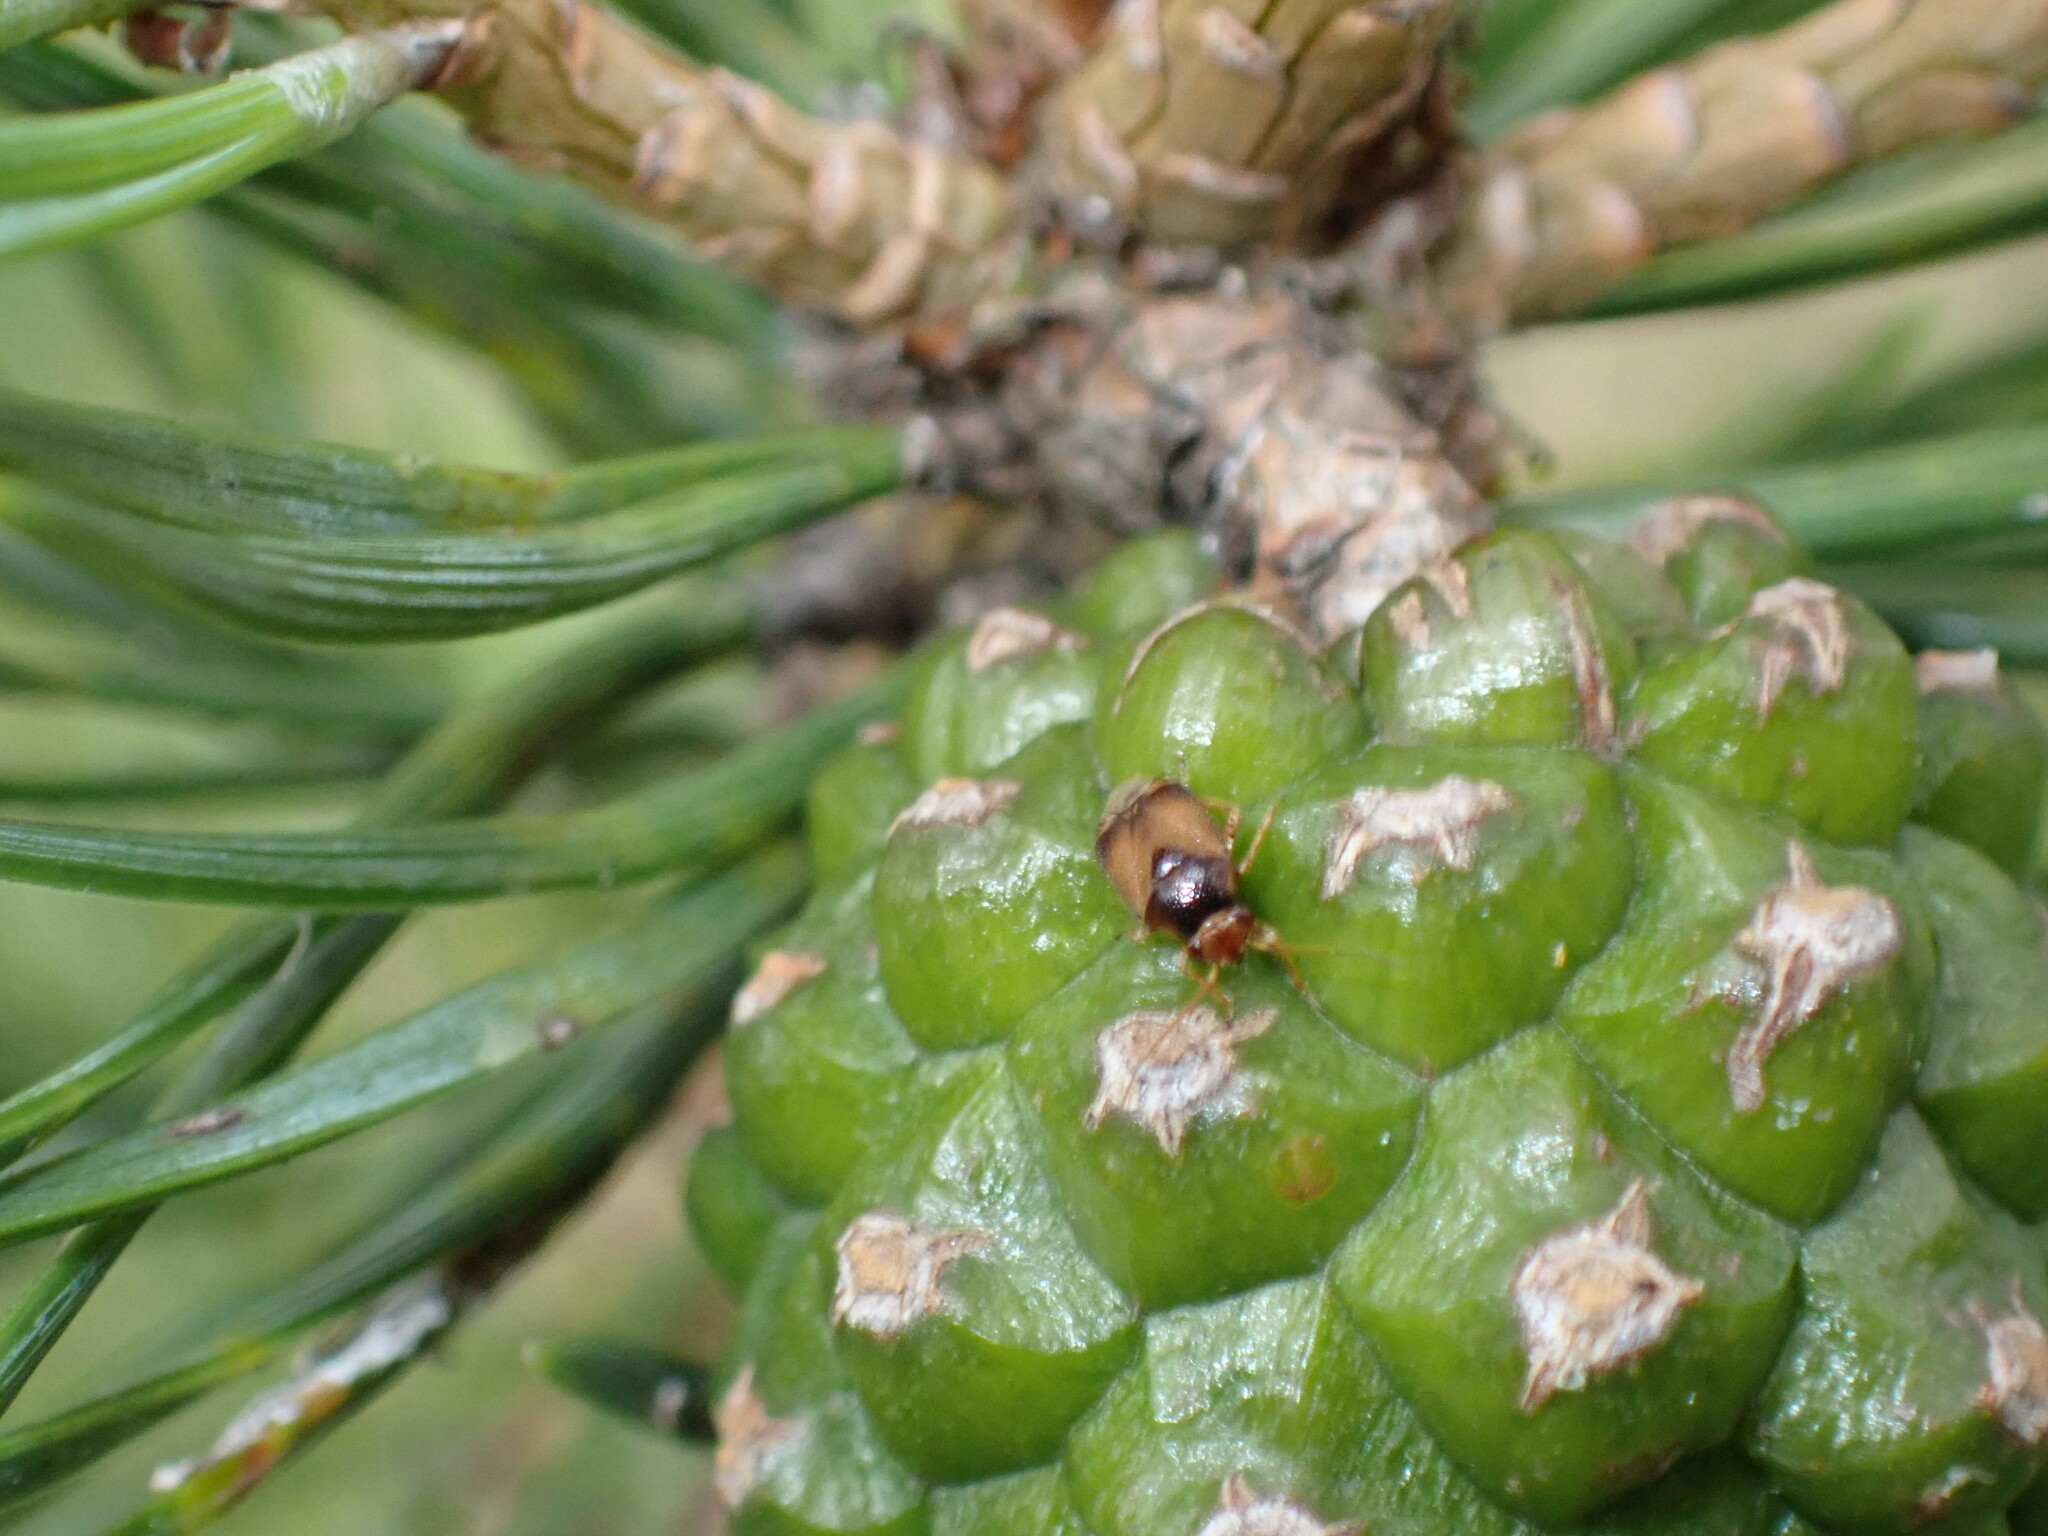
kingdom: Animalia
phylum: Arthropoda
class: Insecta
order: Hemiptera
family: Miridae
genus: Camptozygum
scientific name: Camptozygum aequale
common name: Plant bug
